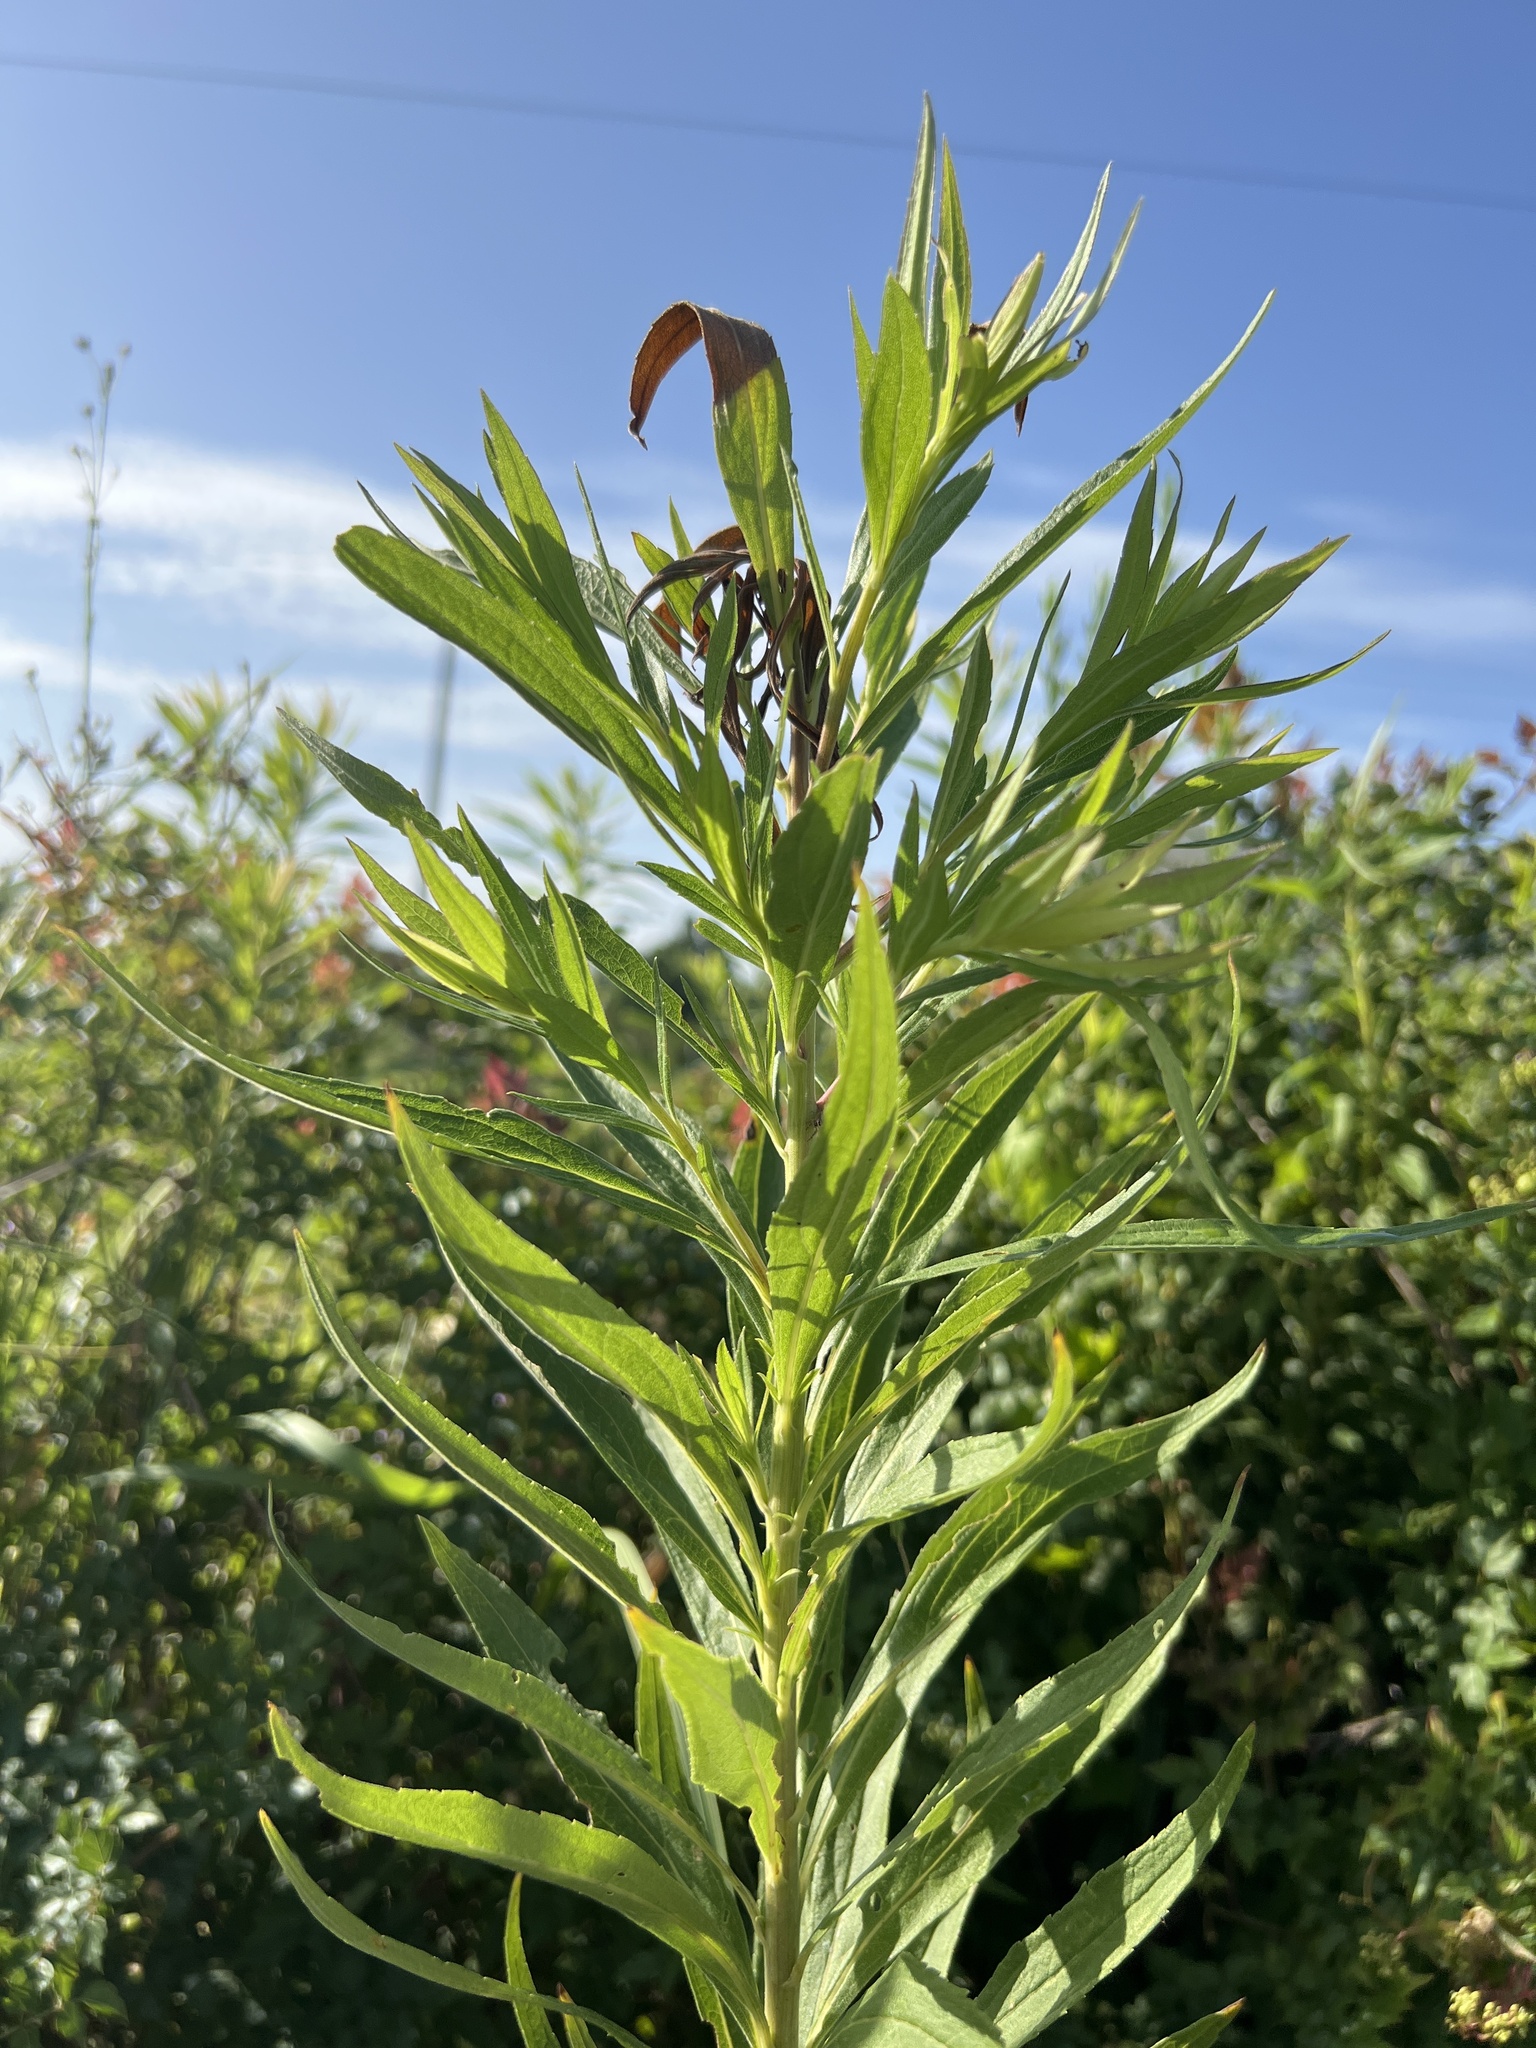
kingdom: Plantae
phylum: Tracheophyta
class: Magnoliopsida
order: Asterales
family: Asteraceae
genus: Solidago
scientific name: Solidago altissima
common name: Late goldenrod
